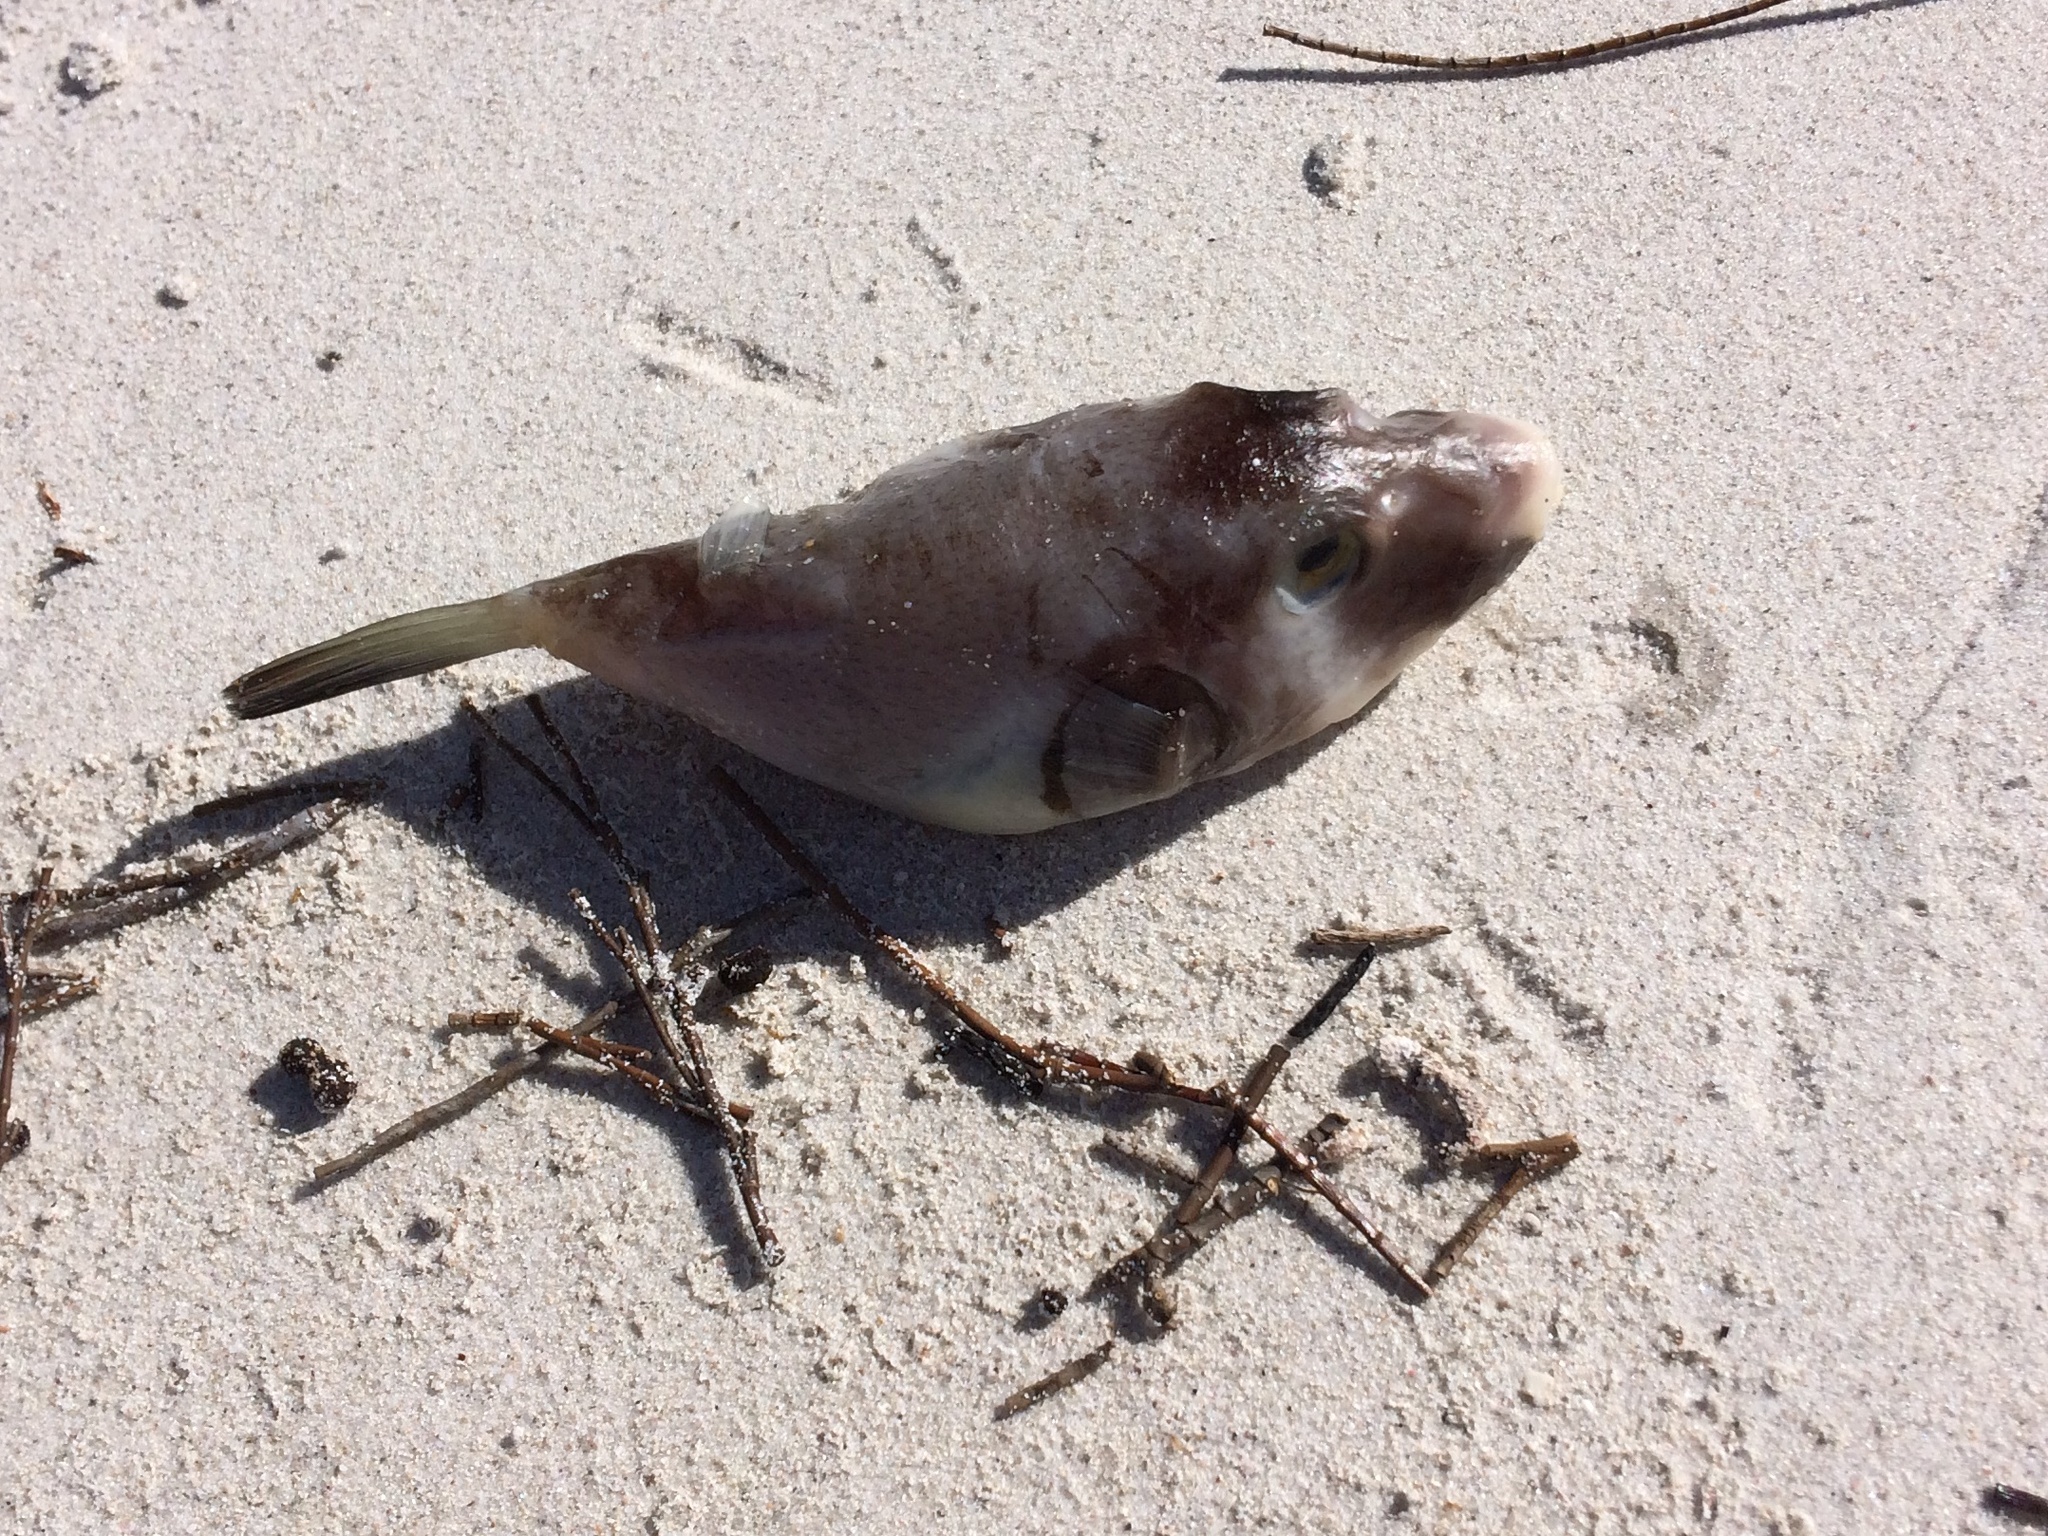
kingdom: Animalia
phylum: Chordata
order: Tetraodontiformes
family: Tetraodontidae
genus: Omegophora
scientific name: Omegophora armilla
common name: Ringed pufferfish
